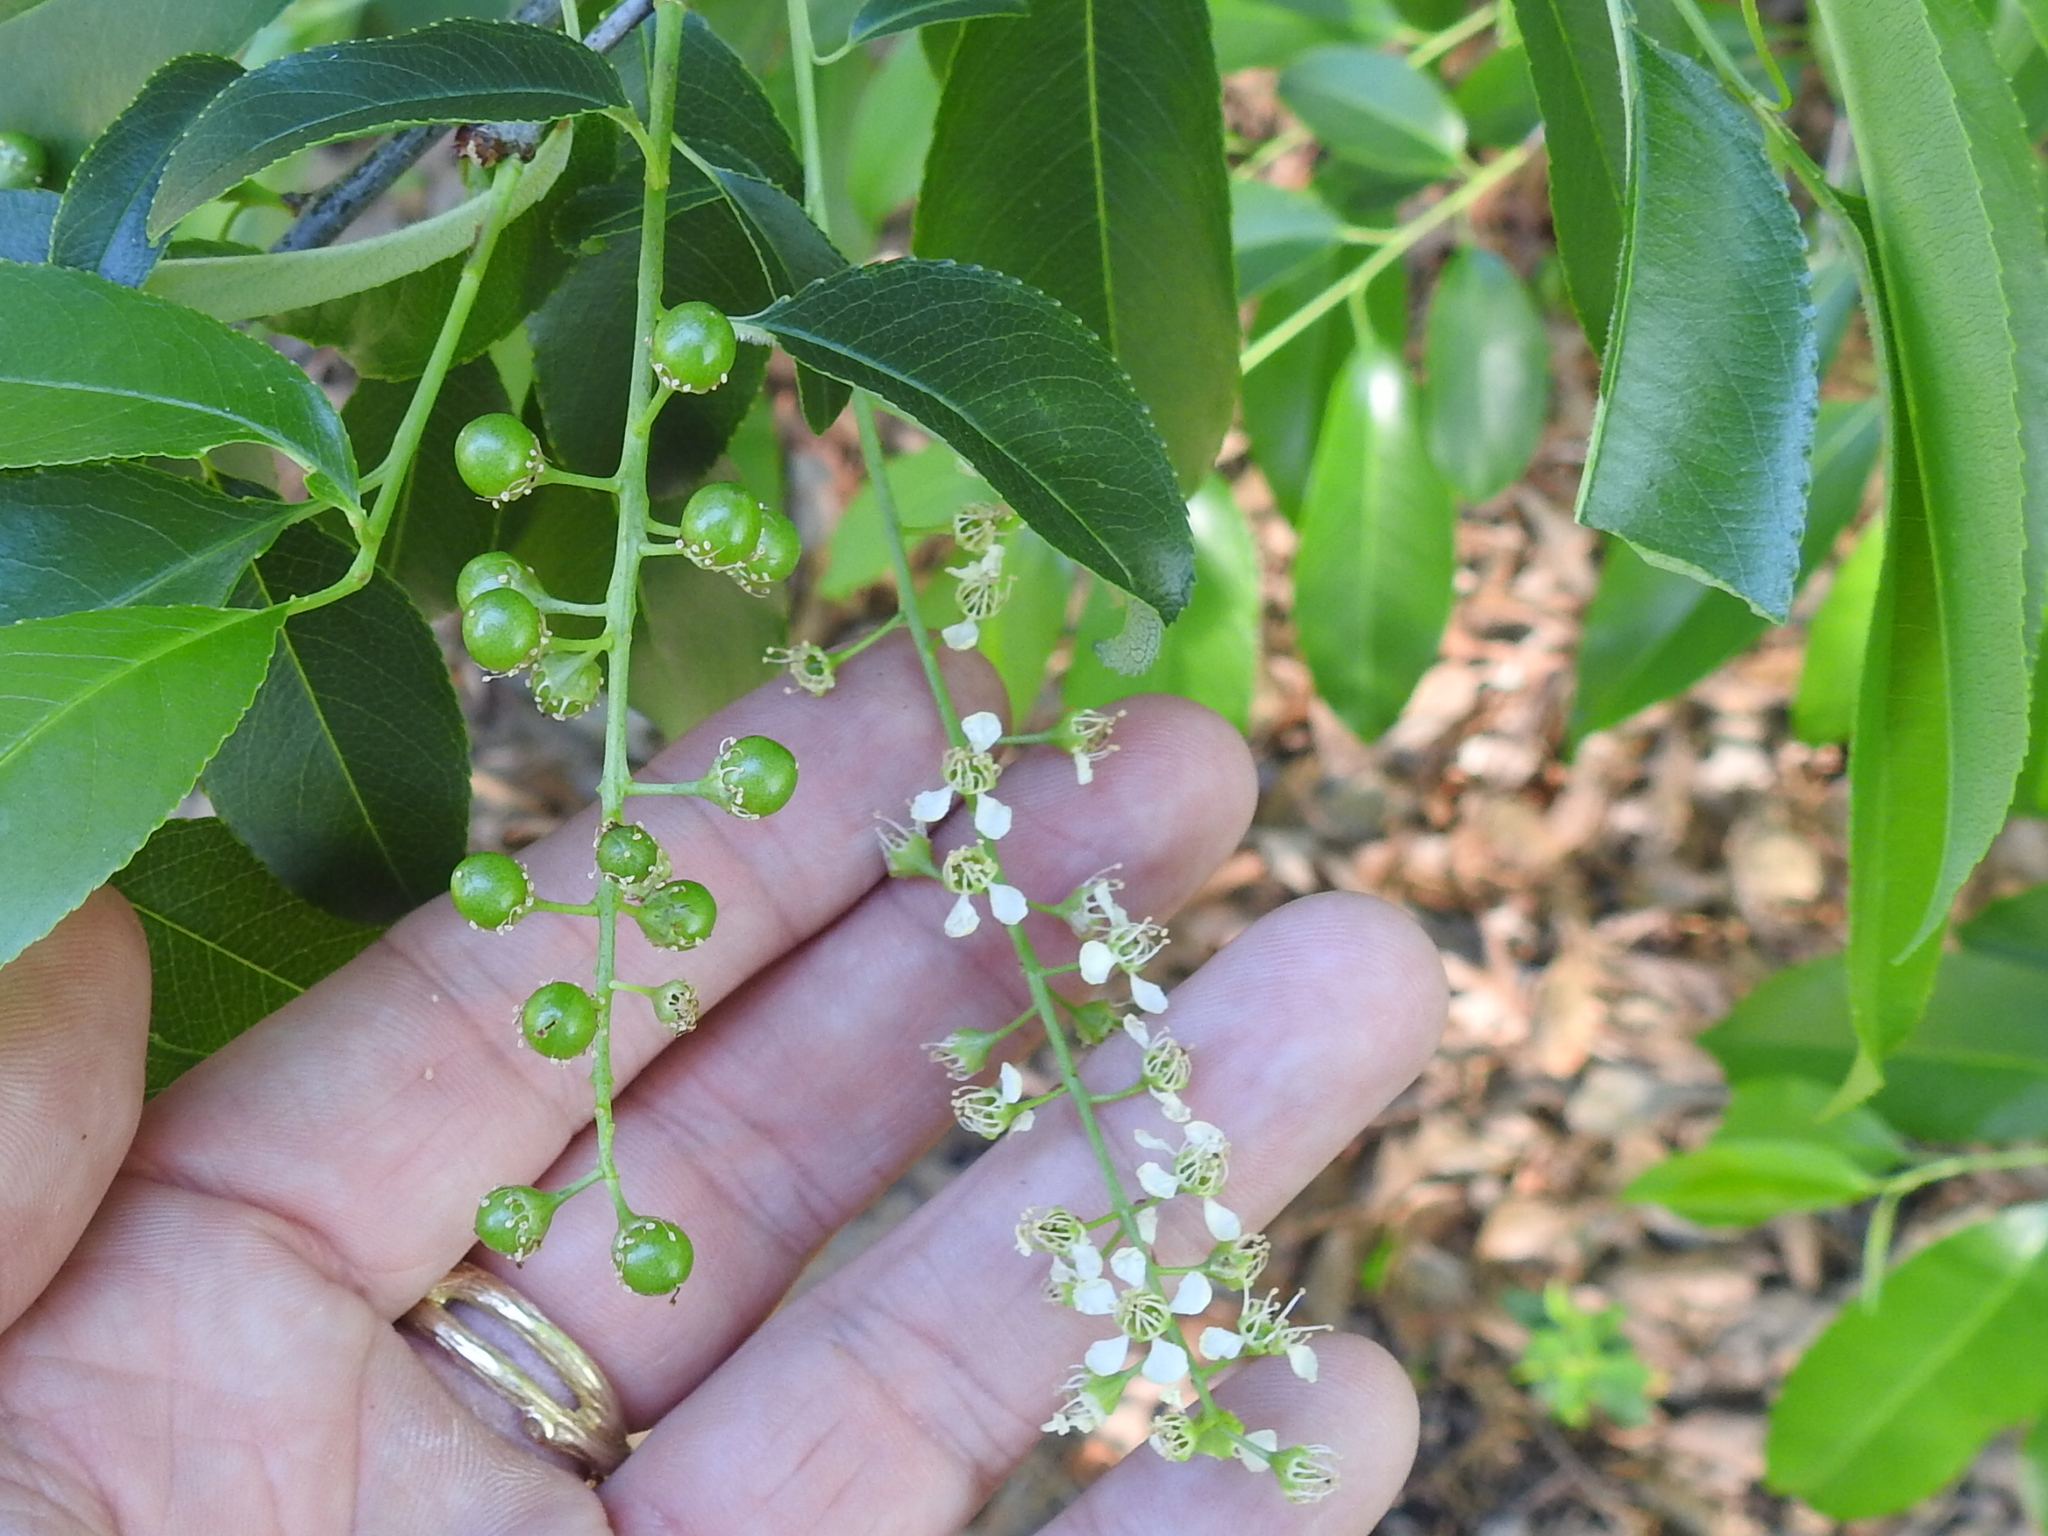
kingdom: Plantae
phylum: Tracheophyta
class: Magnoliopsida
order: Rosales
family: Rosaceae
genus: Prunus
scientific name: Prunus serotina
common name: Black cherry
